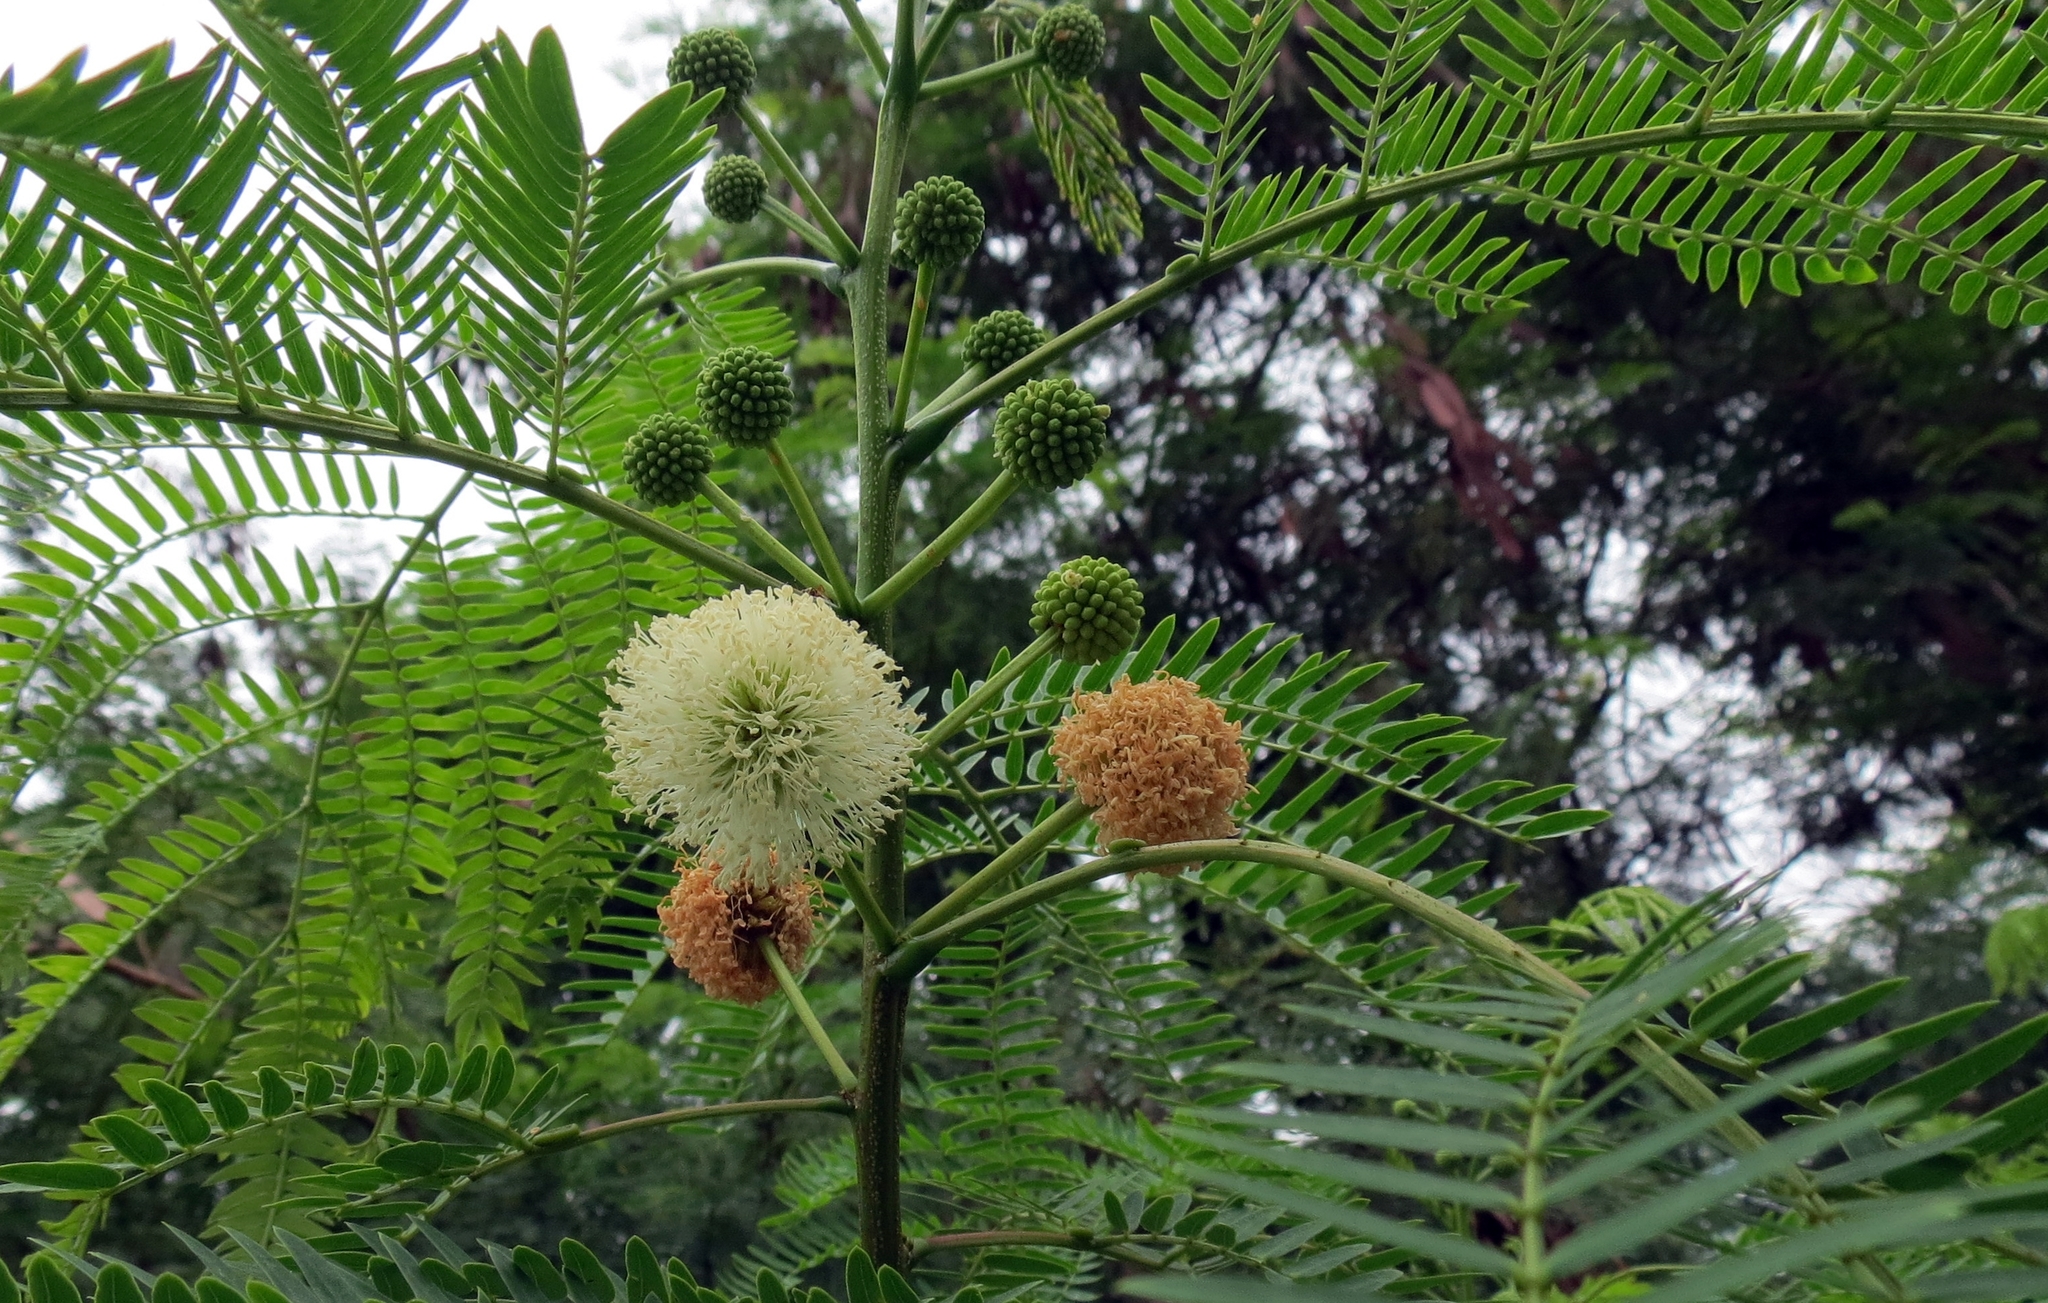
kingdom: Plantae
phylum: Tracheophyta
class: Magnoliopsida
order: Fabales
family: Fabaceae
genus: Leucaena
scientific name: Leucaena leucocephala
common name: White leadtree
